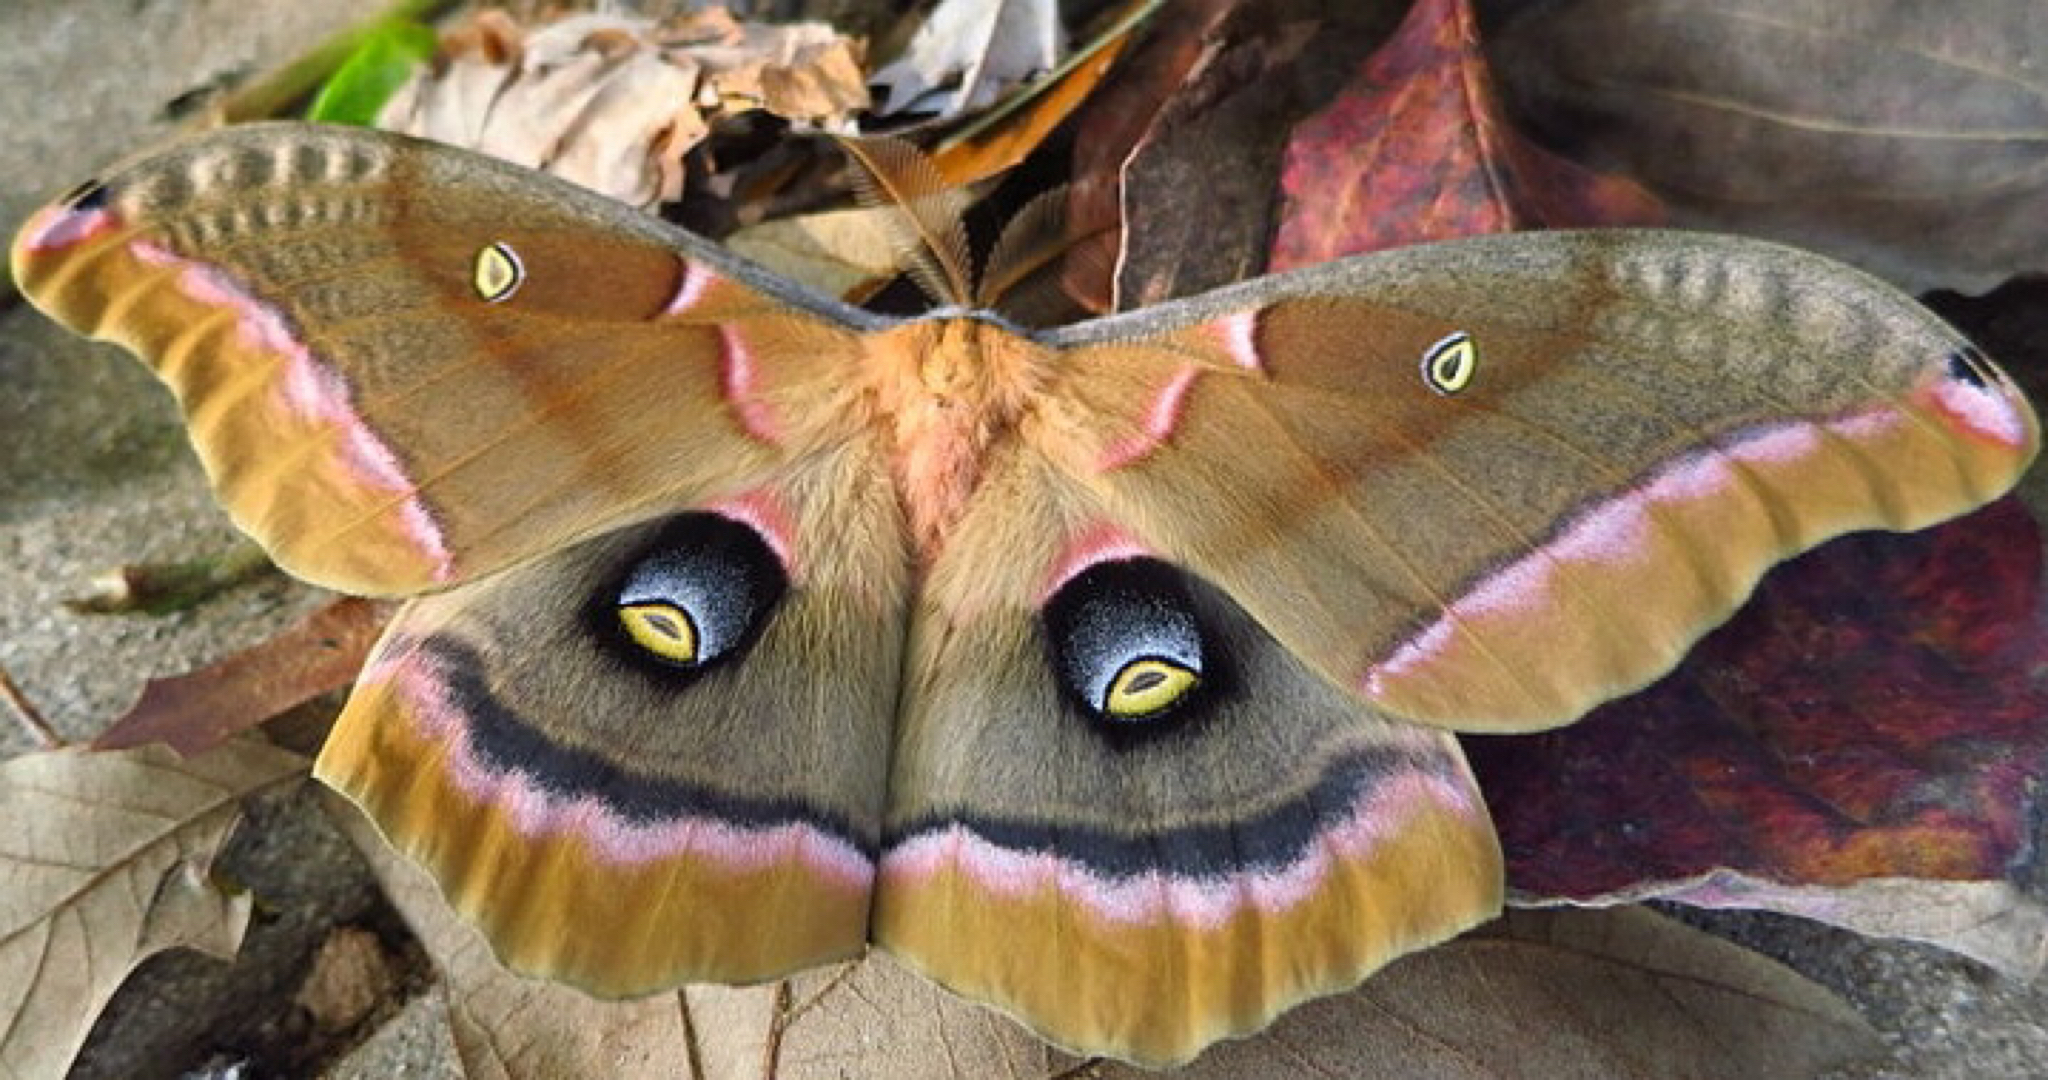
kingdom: Animalia
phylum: Arthropoda
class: Insecta
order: Lepidoptera
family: Saturniidae
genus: Antheraea
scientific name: Antheraea polyphemus
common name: Polyphemus moth
